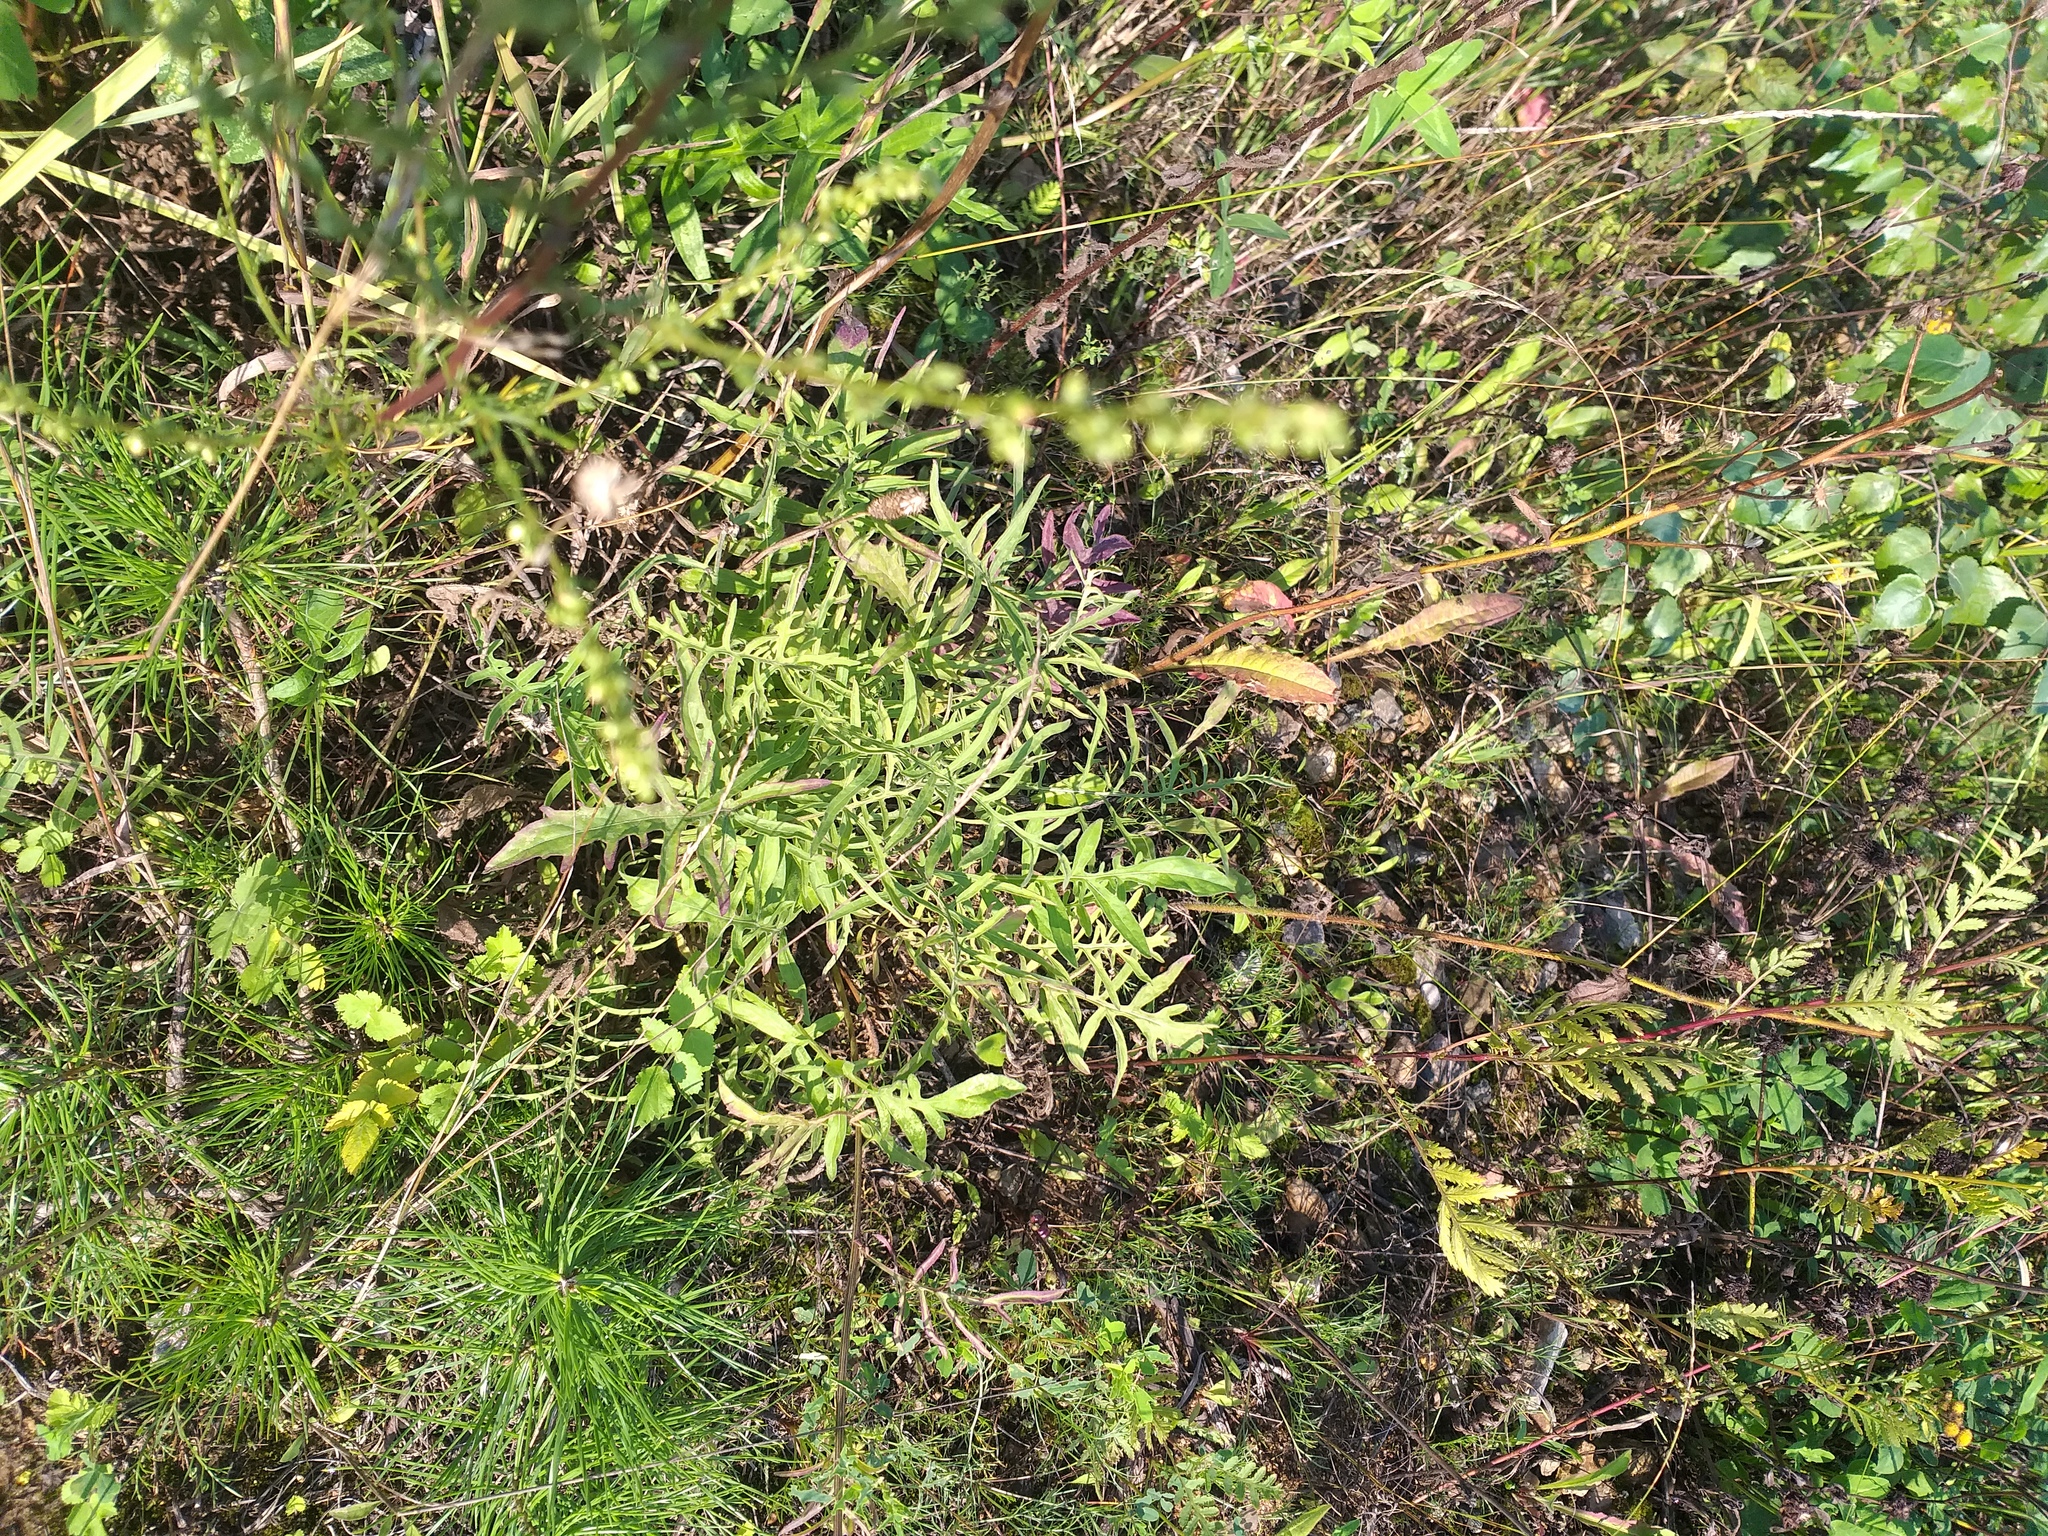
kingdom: Plantae
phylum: Tracheophyta
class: Magnoliopsida
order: Asterales
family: Asteraceae
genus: Centaurea
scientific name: Centaurea scabiosa
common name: Greater knapweed
